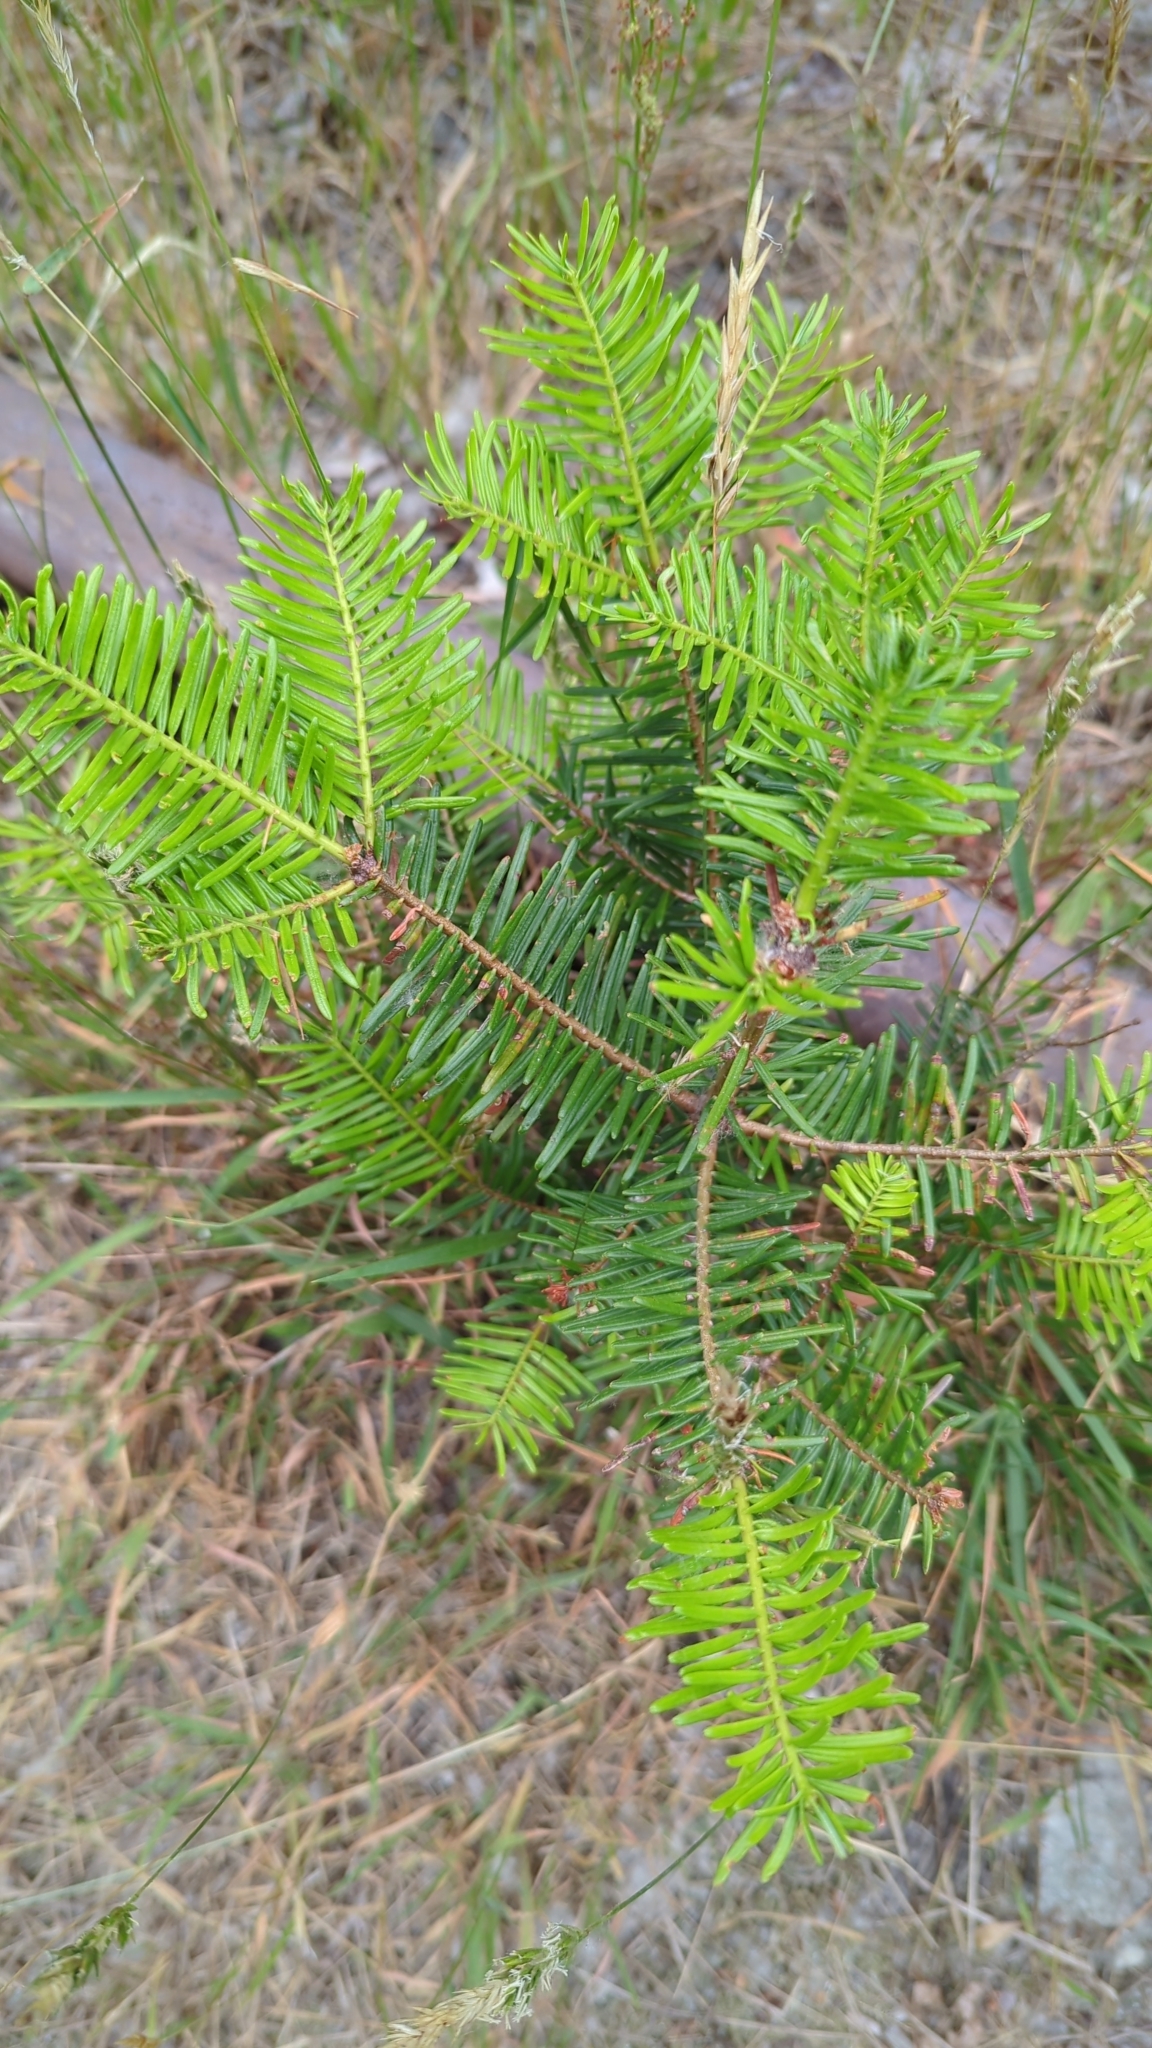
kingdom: Plantae
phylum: Tracheophyta
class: Pinopsida
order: Pinales
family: Pinaceae
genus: Abies
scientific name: Abies grandis
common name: Giant fir
